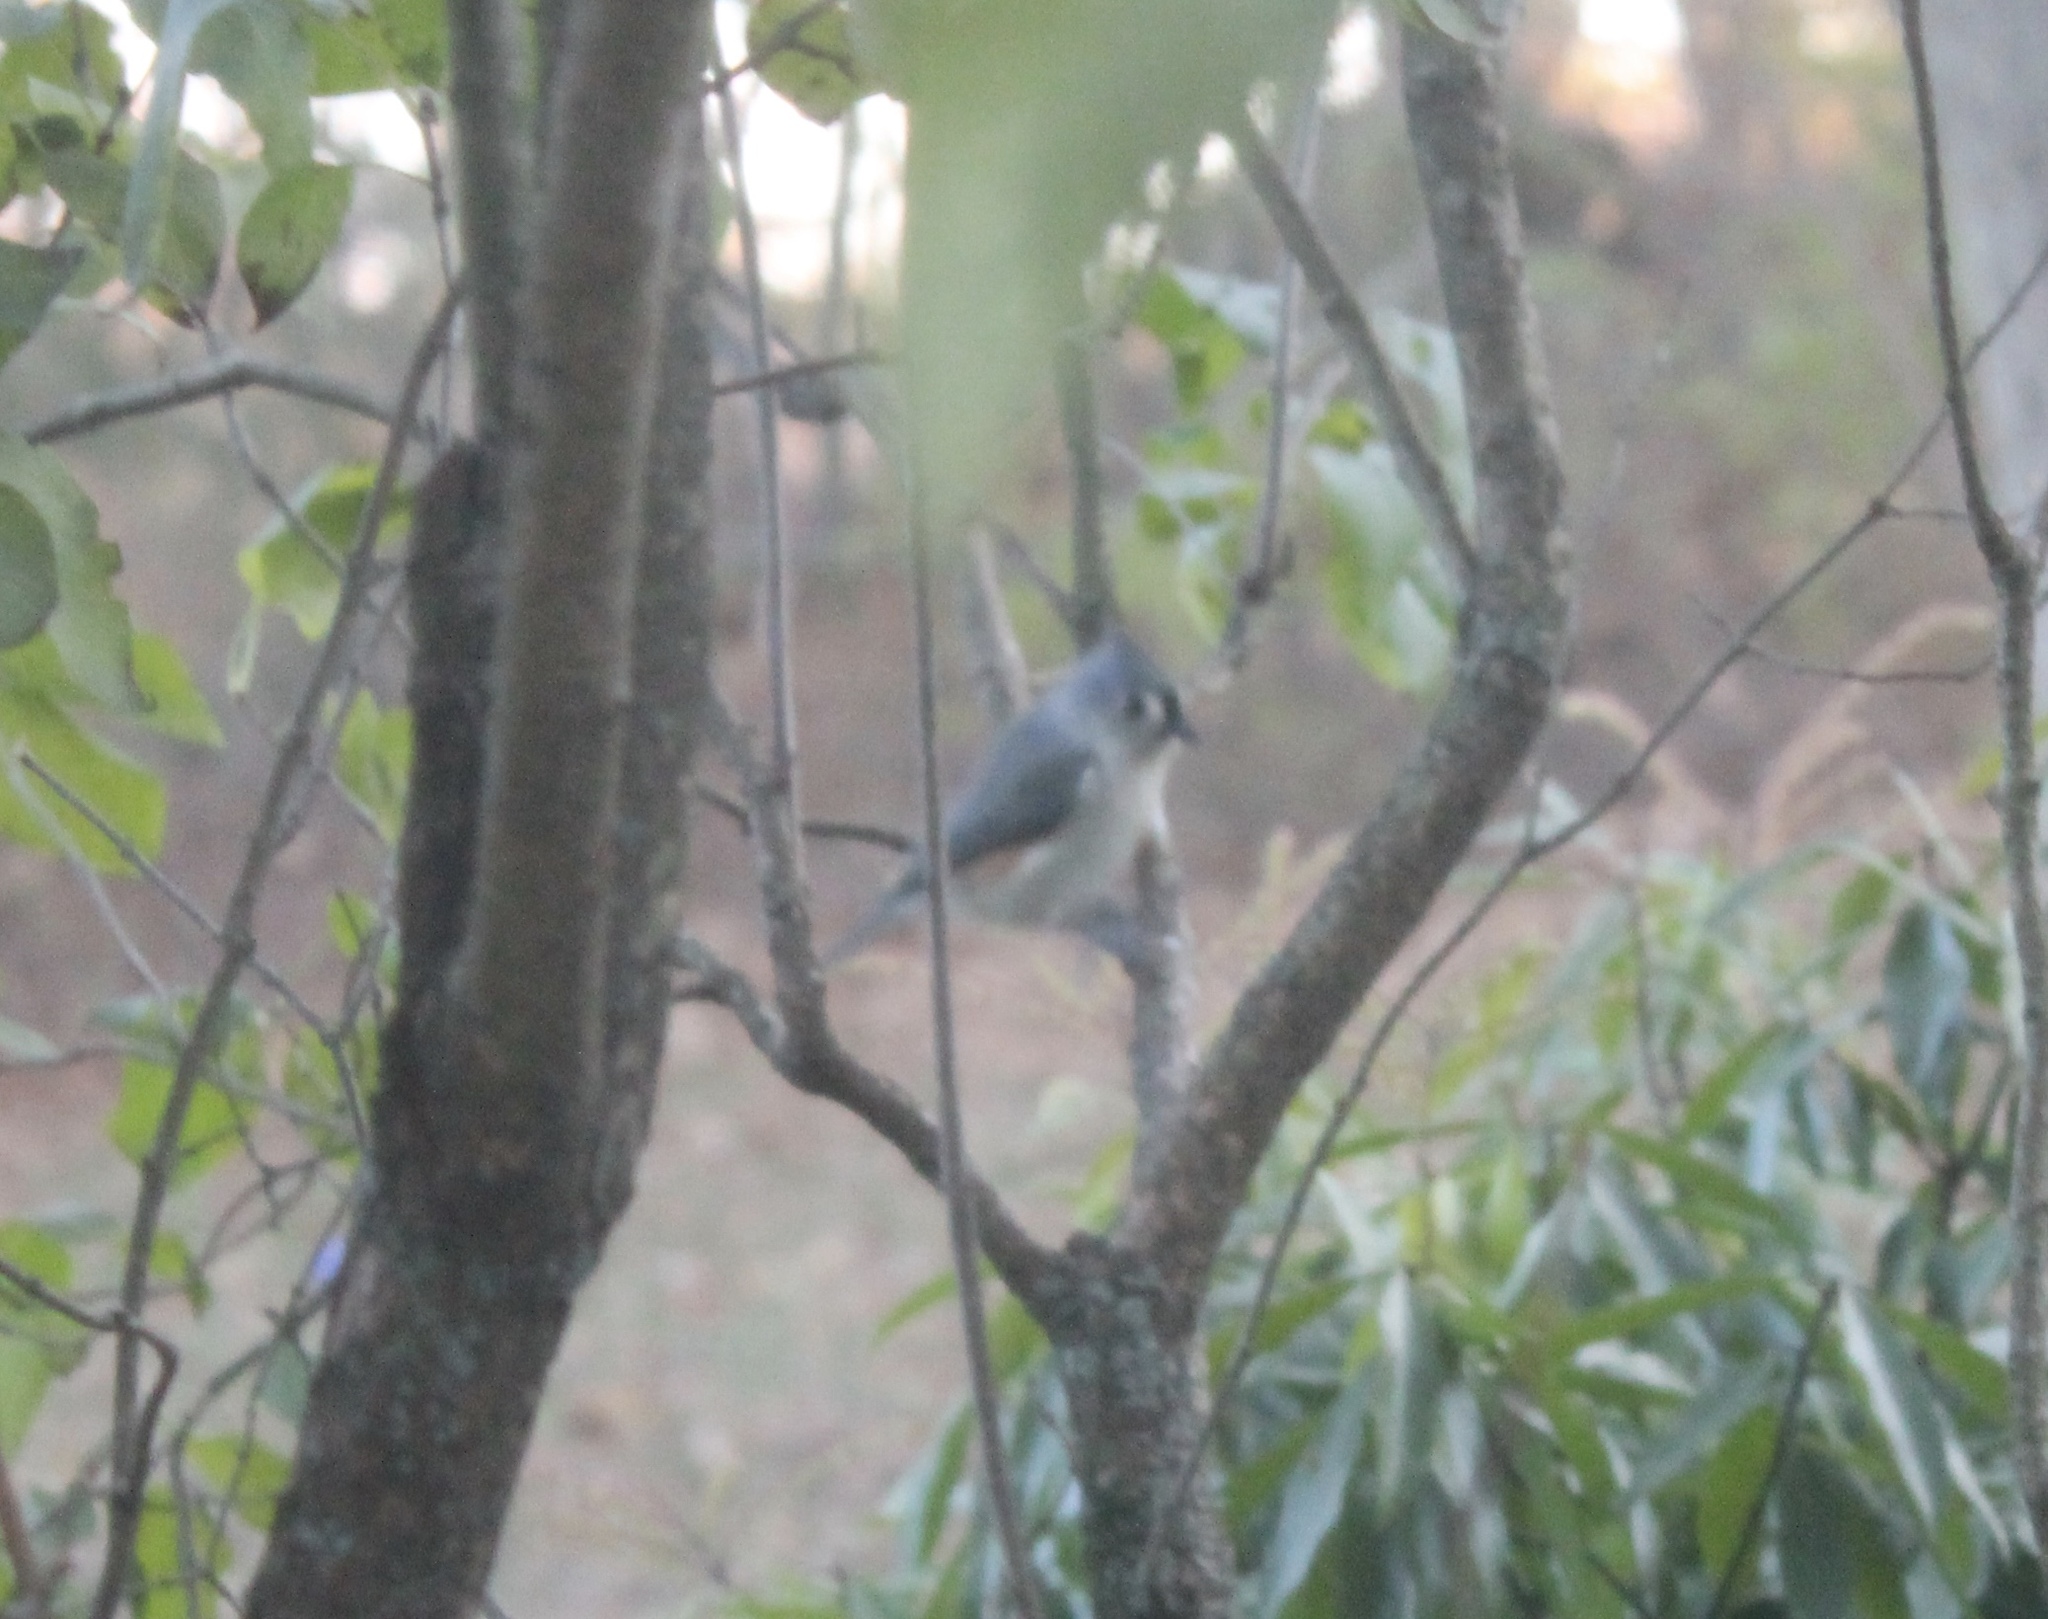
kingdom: Animalia
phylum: Chordata
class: Aves
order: Passeriformes
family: Paridae
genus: Baeolophus
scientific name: Baeolophus bicolor
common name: Tufted titmouse
